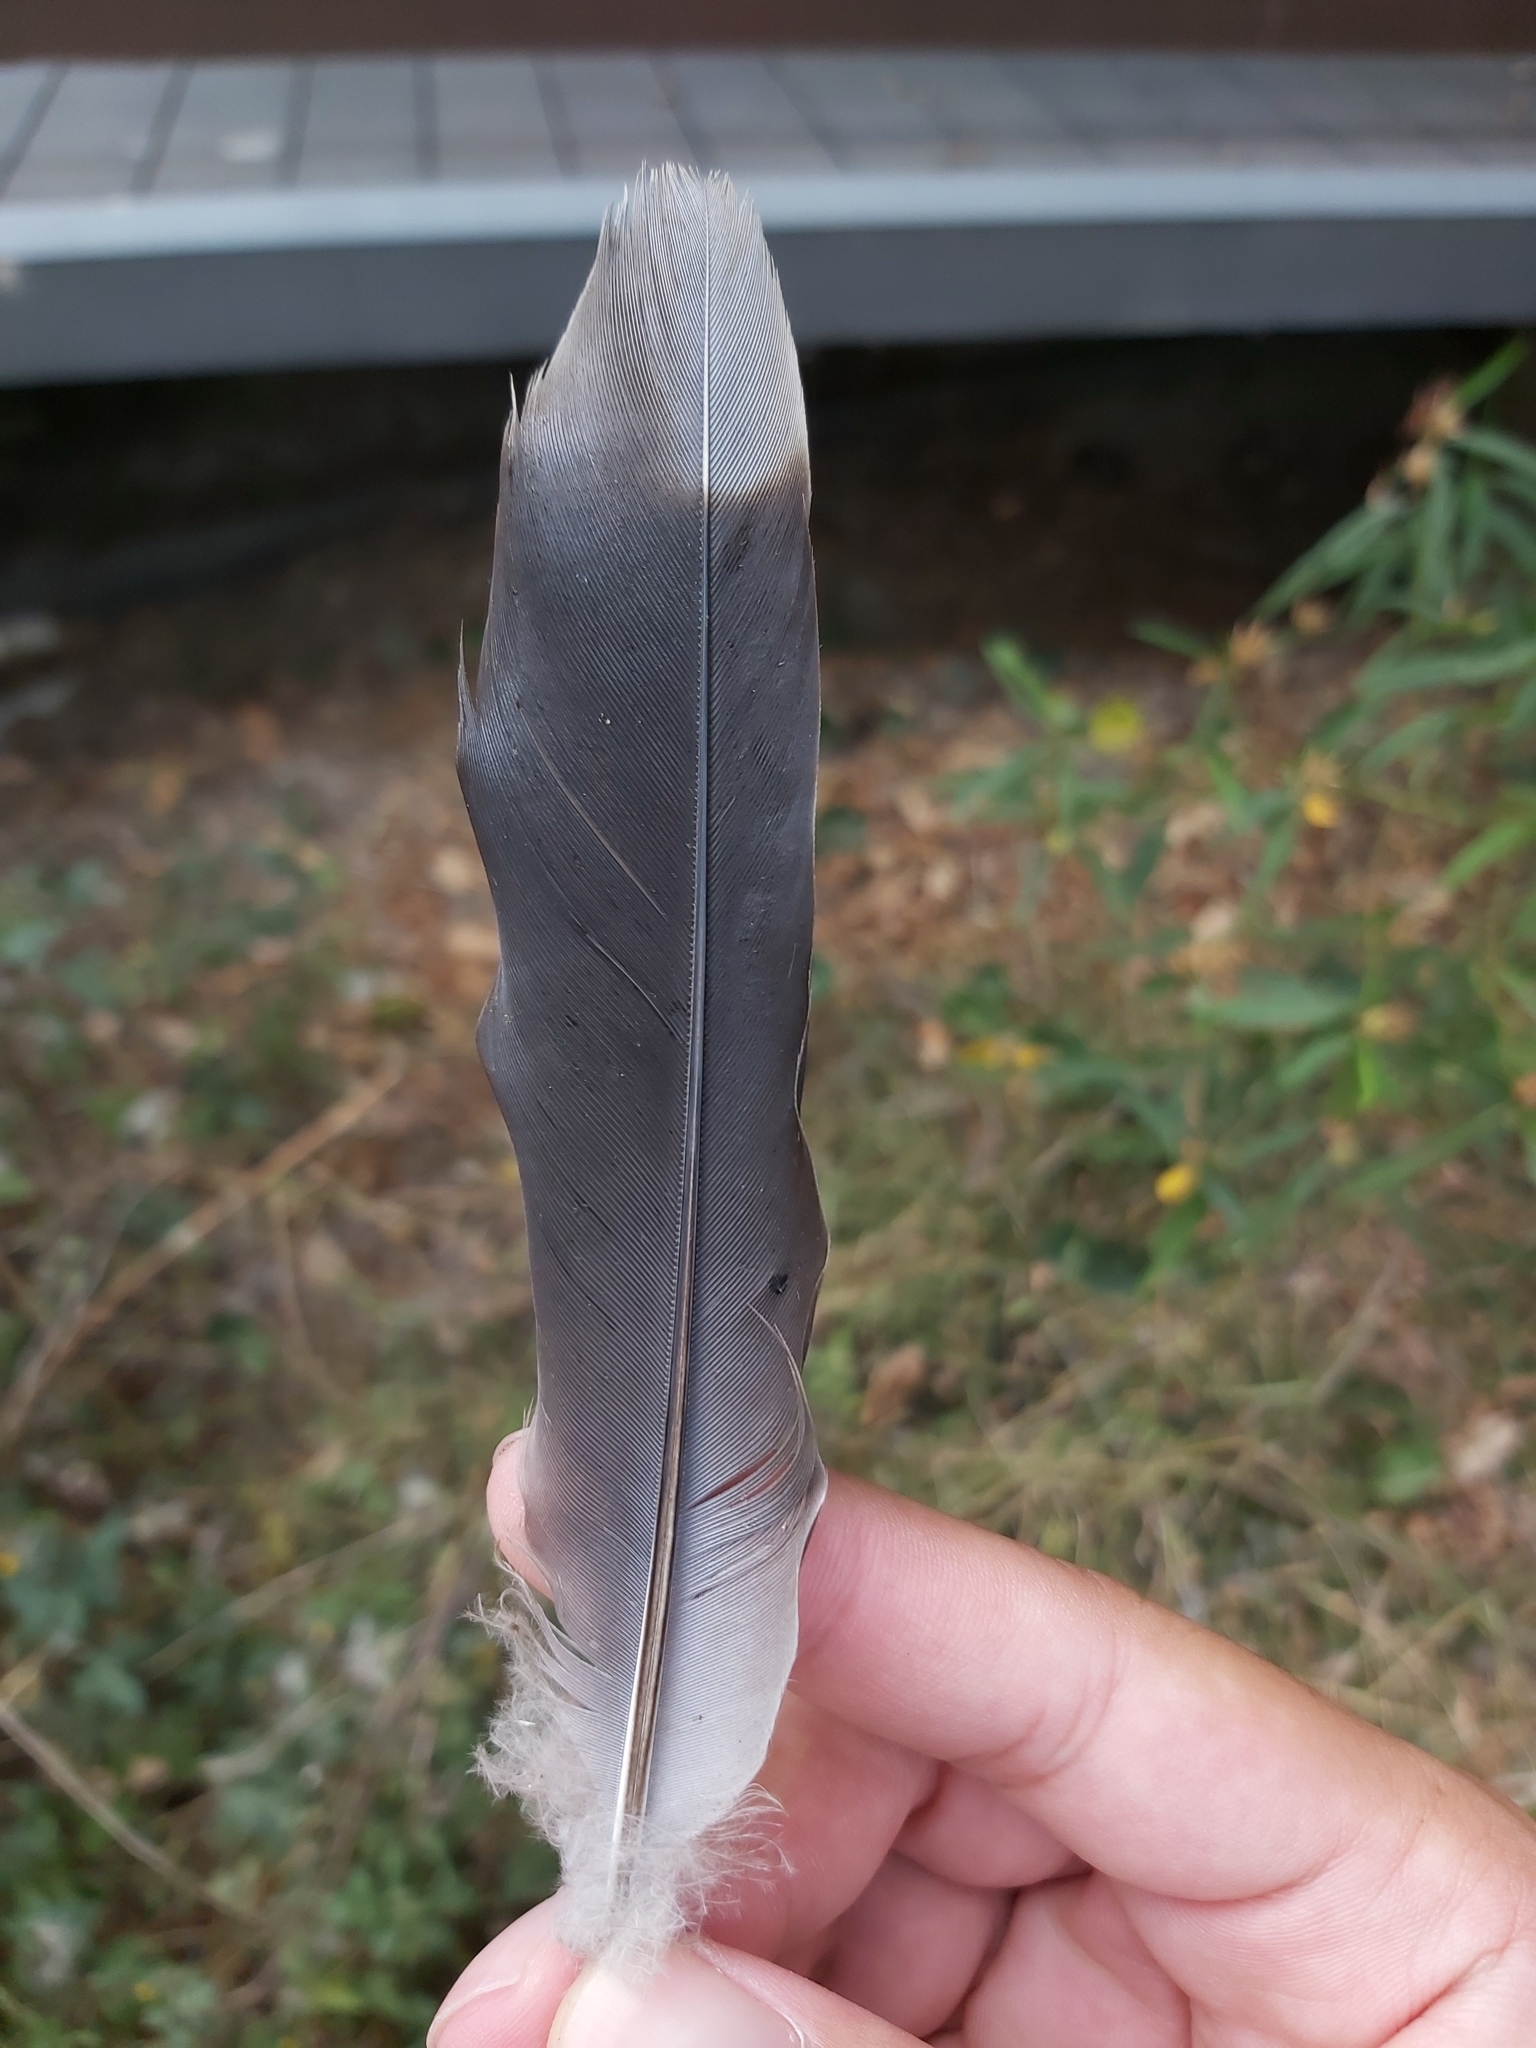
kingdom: Animalia
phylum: Chordata
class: Aves
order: Columbiformes
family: Columbidae
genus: Spilopelia
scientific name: Spilopelia chinensis
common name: Spotted dove
